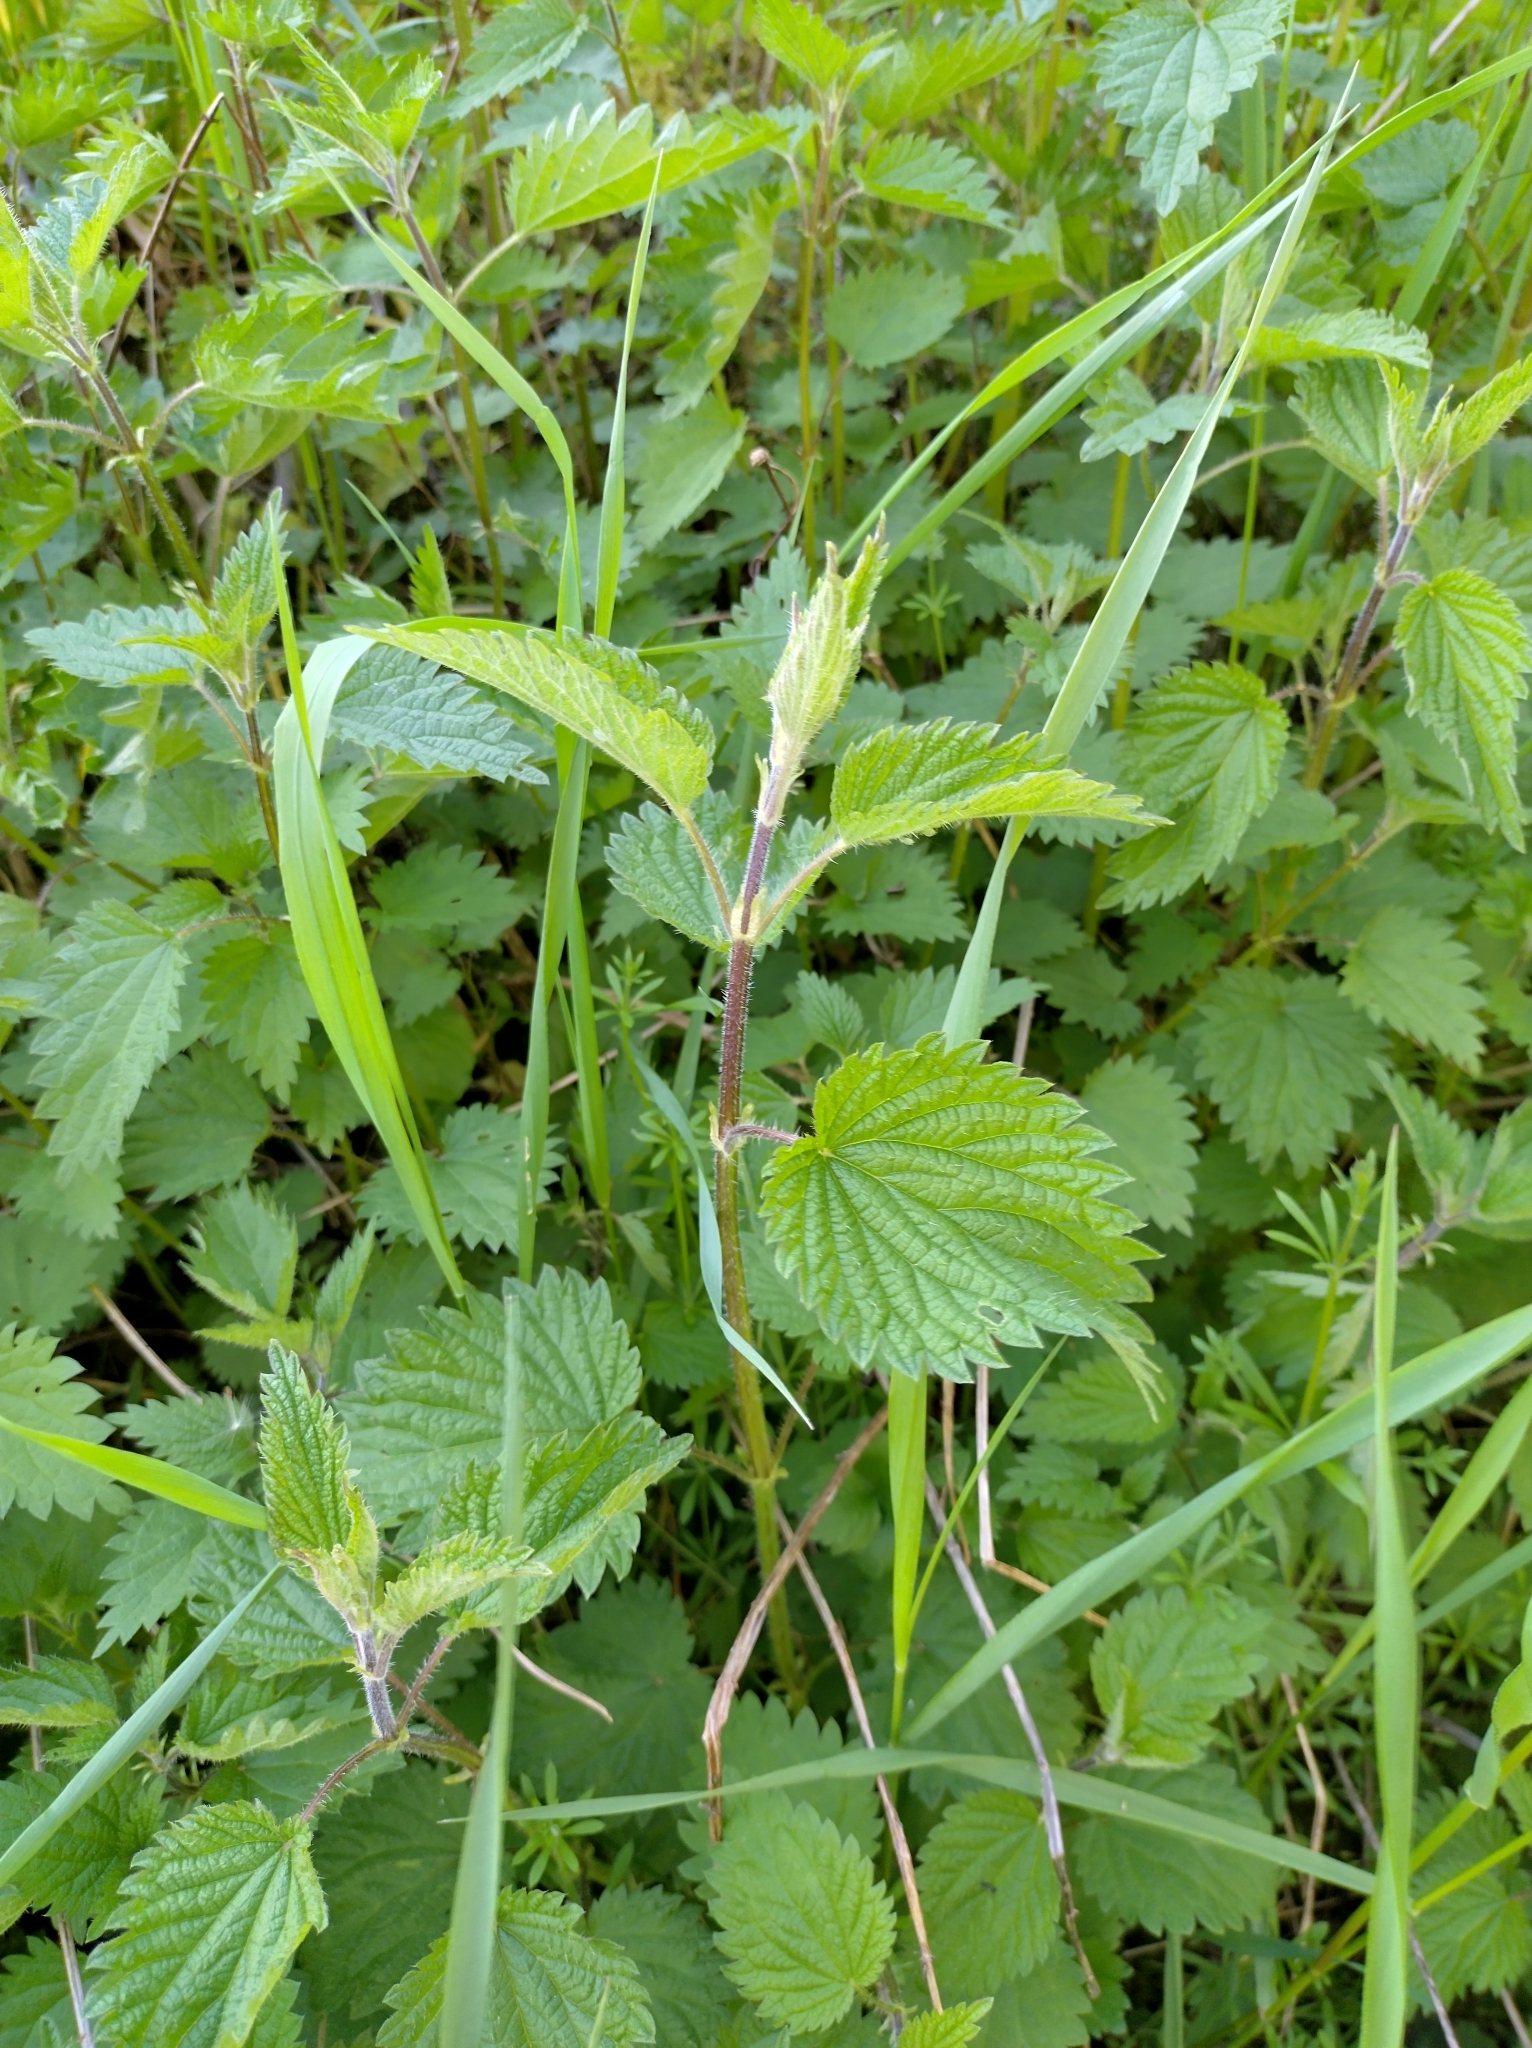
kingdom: Plantae
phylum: Tracheophyta
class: Magnoliopsida
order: Rosales
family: Urticaceae
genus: Urtica
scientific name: Urtica dioica
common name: Common nettle
